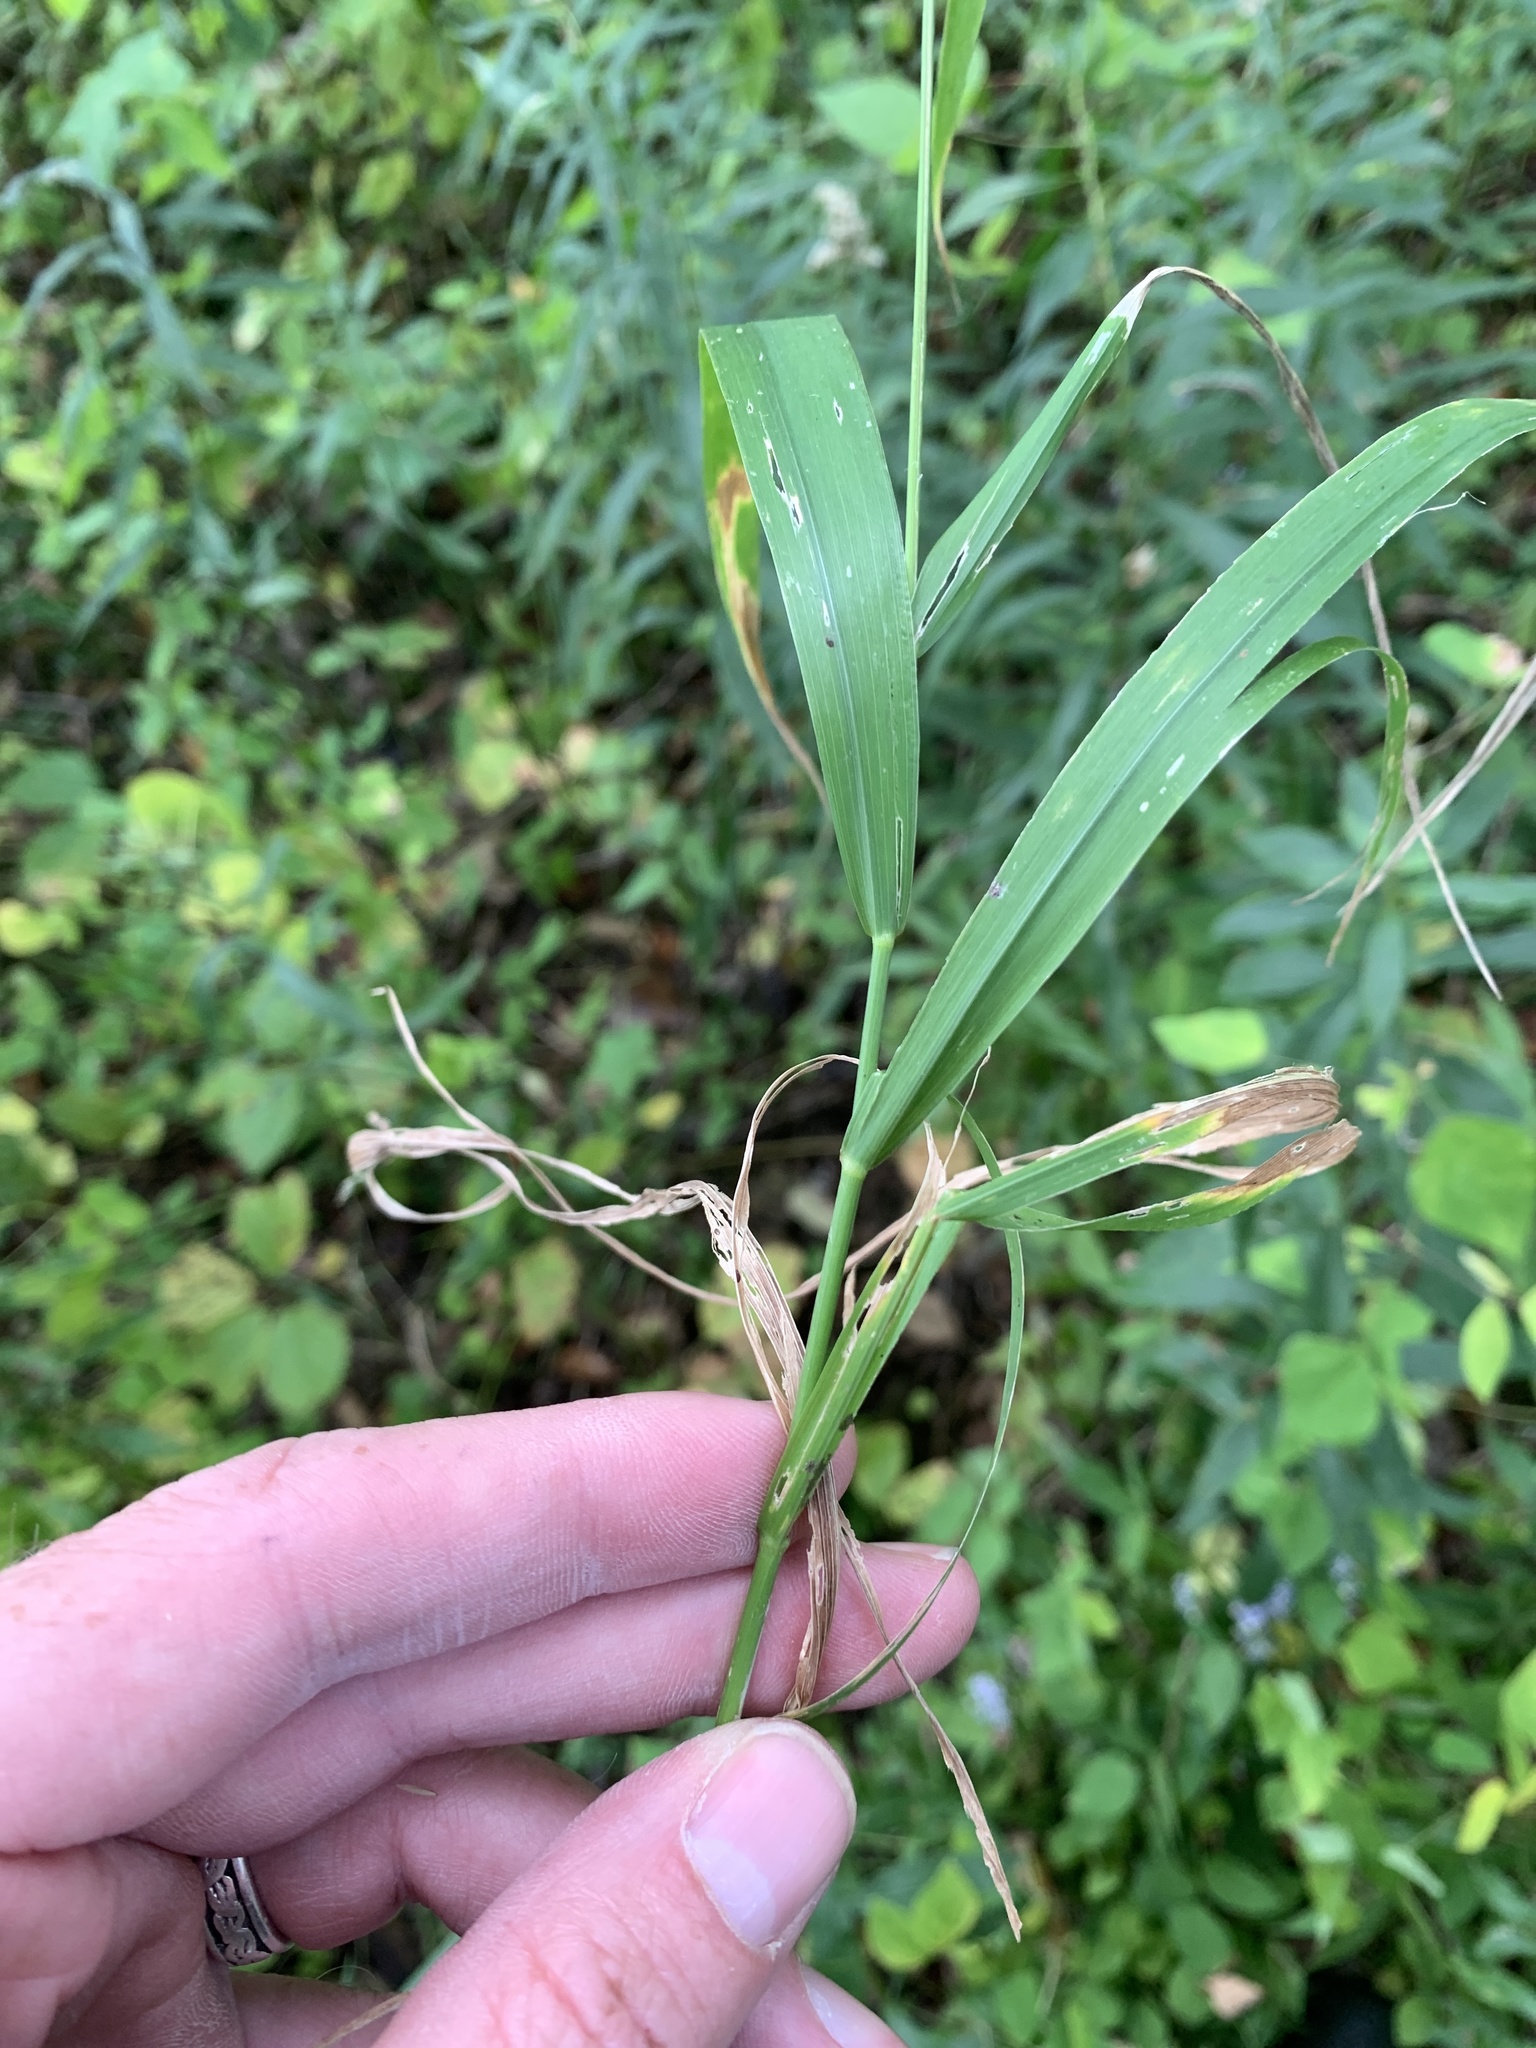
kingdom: Plantae
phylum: Tracheophyta
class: Liliopsida
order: Poales
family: Poaceae
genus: Cinna
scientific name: Cinna arundinacea
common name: Stout woodreed
